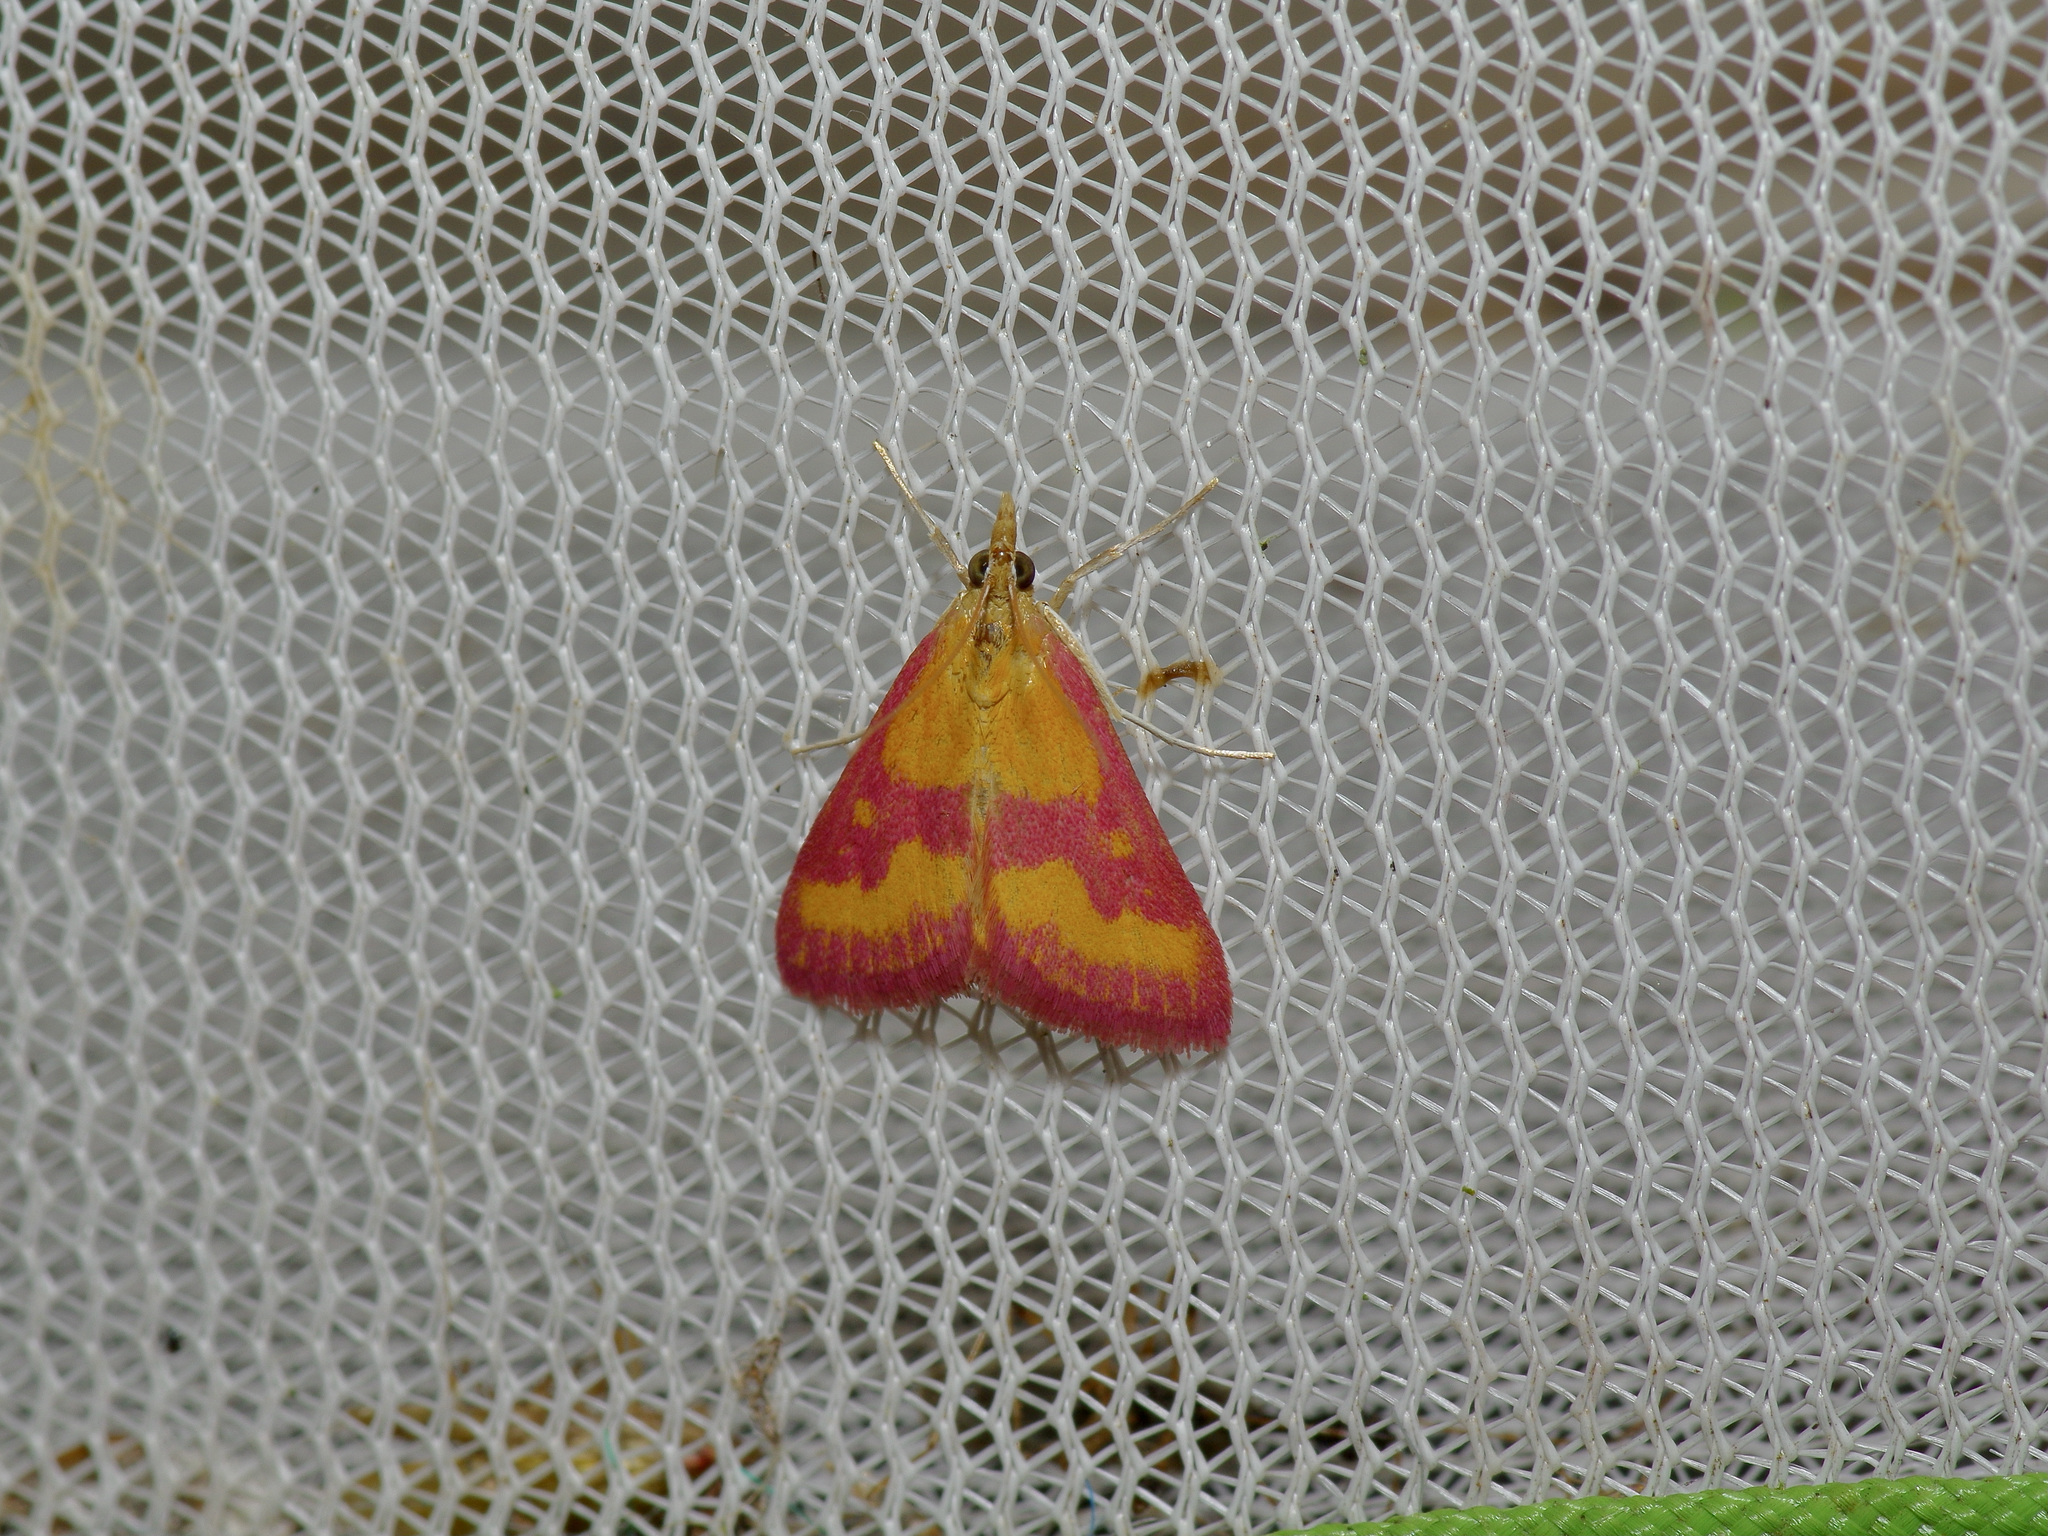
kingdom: Animalia
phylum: Arthropoda
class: Insecta
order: Lepidoptera
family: Crambidae
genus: Pyrausta
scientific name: Pyrausta laticlavia
